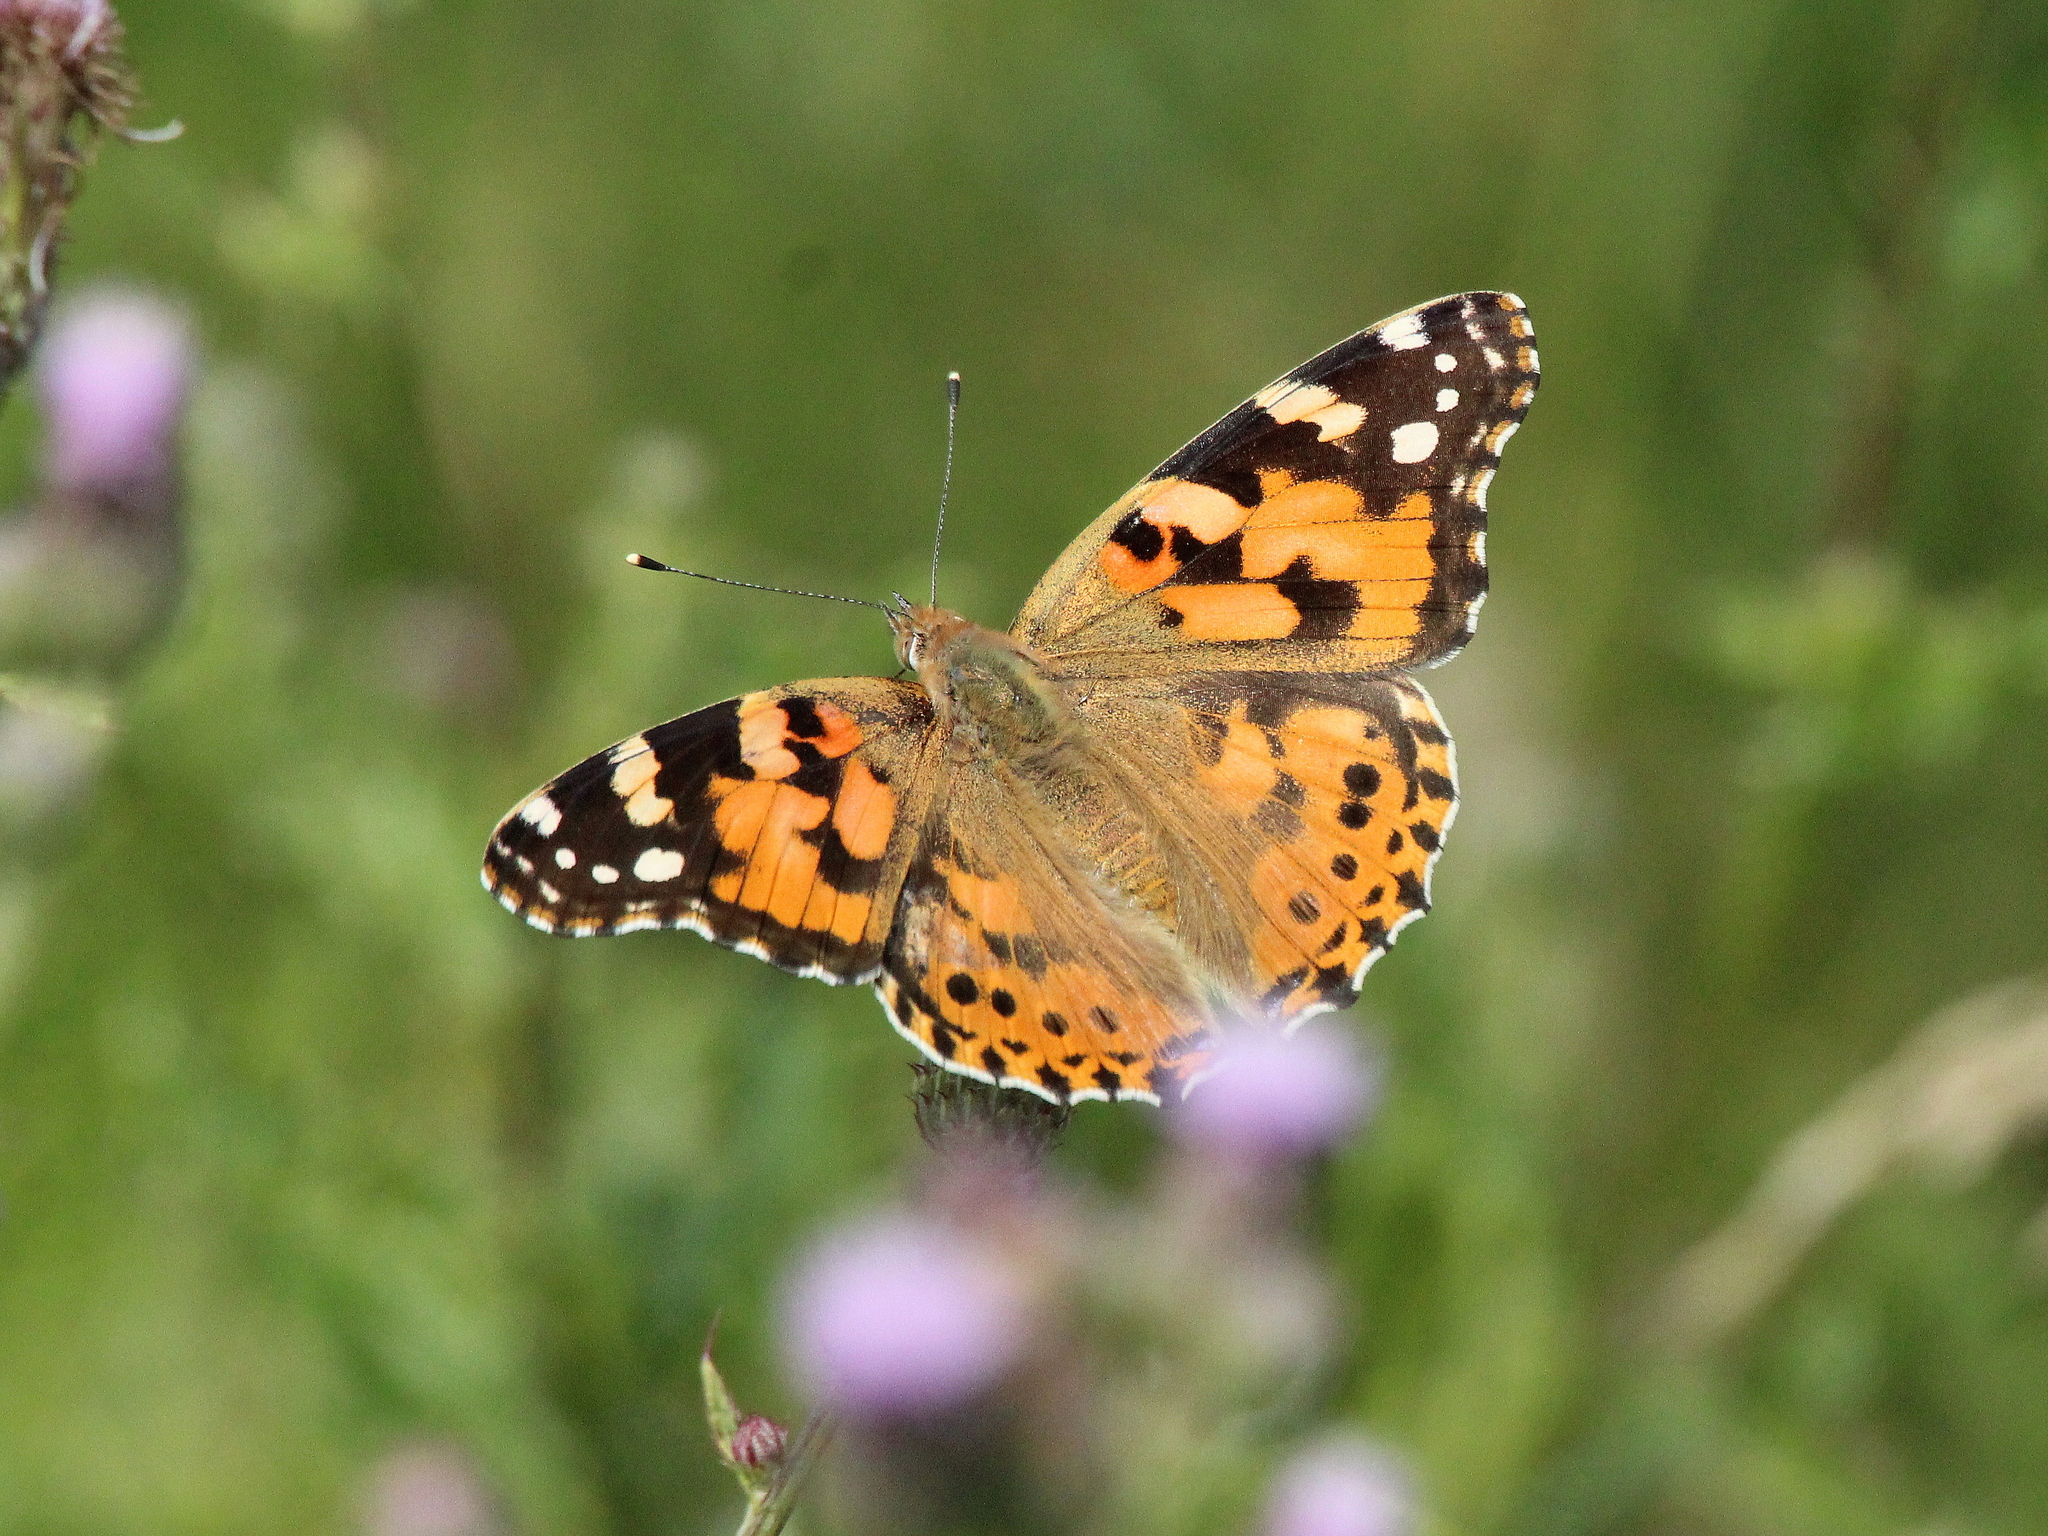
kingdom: Animalia
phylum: Arthropoda
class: Insecta
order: Lepidoptera
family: Nymphalidae
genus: Vanessa
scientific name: Vanessa cardui
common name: Painted lady
